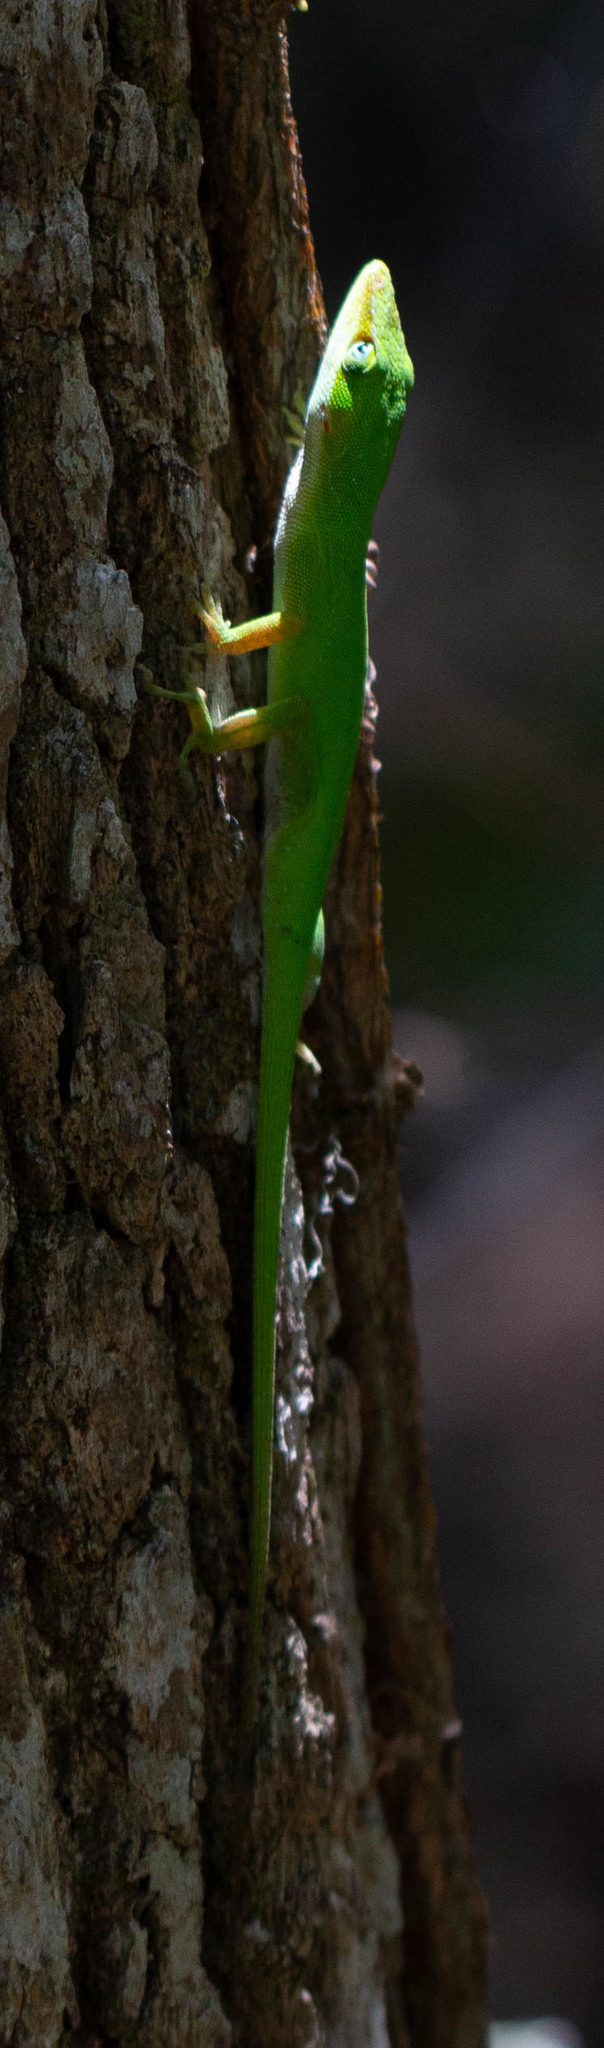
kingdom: Animalia
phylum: Chordata
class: Squamata
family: Dactyloidae
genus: Anolis
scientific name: Anolis carolinensis
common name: Green anole
